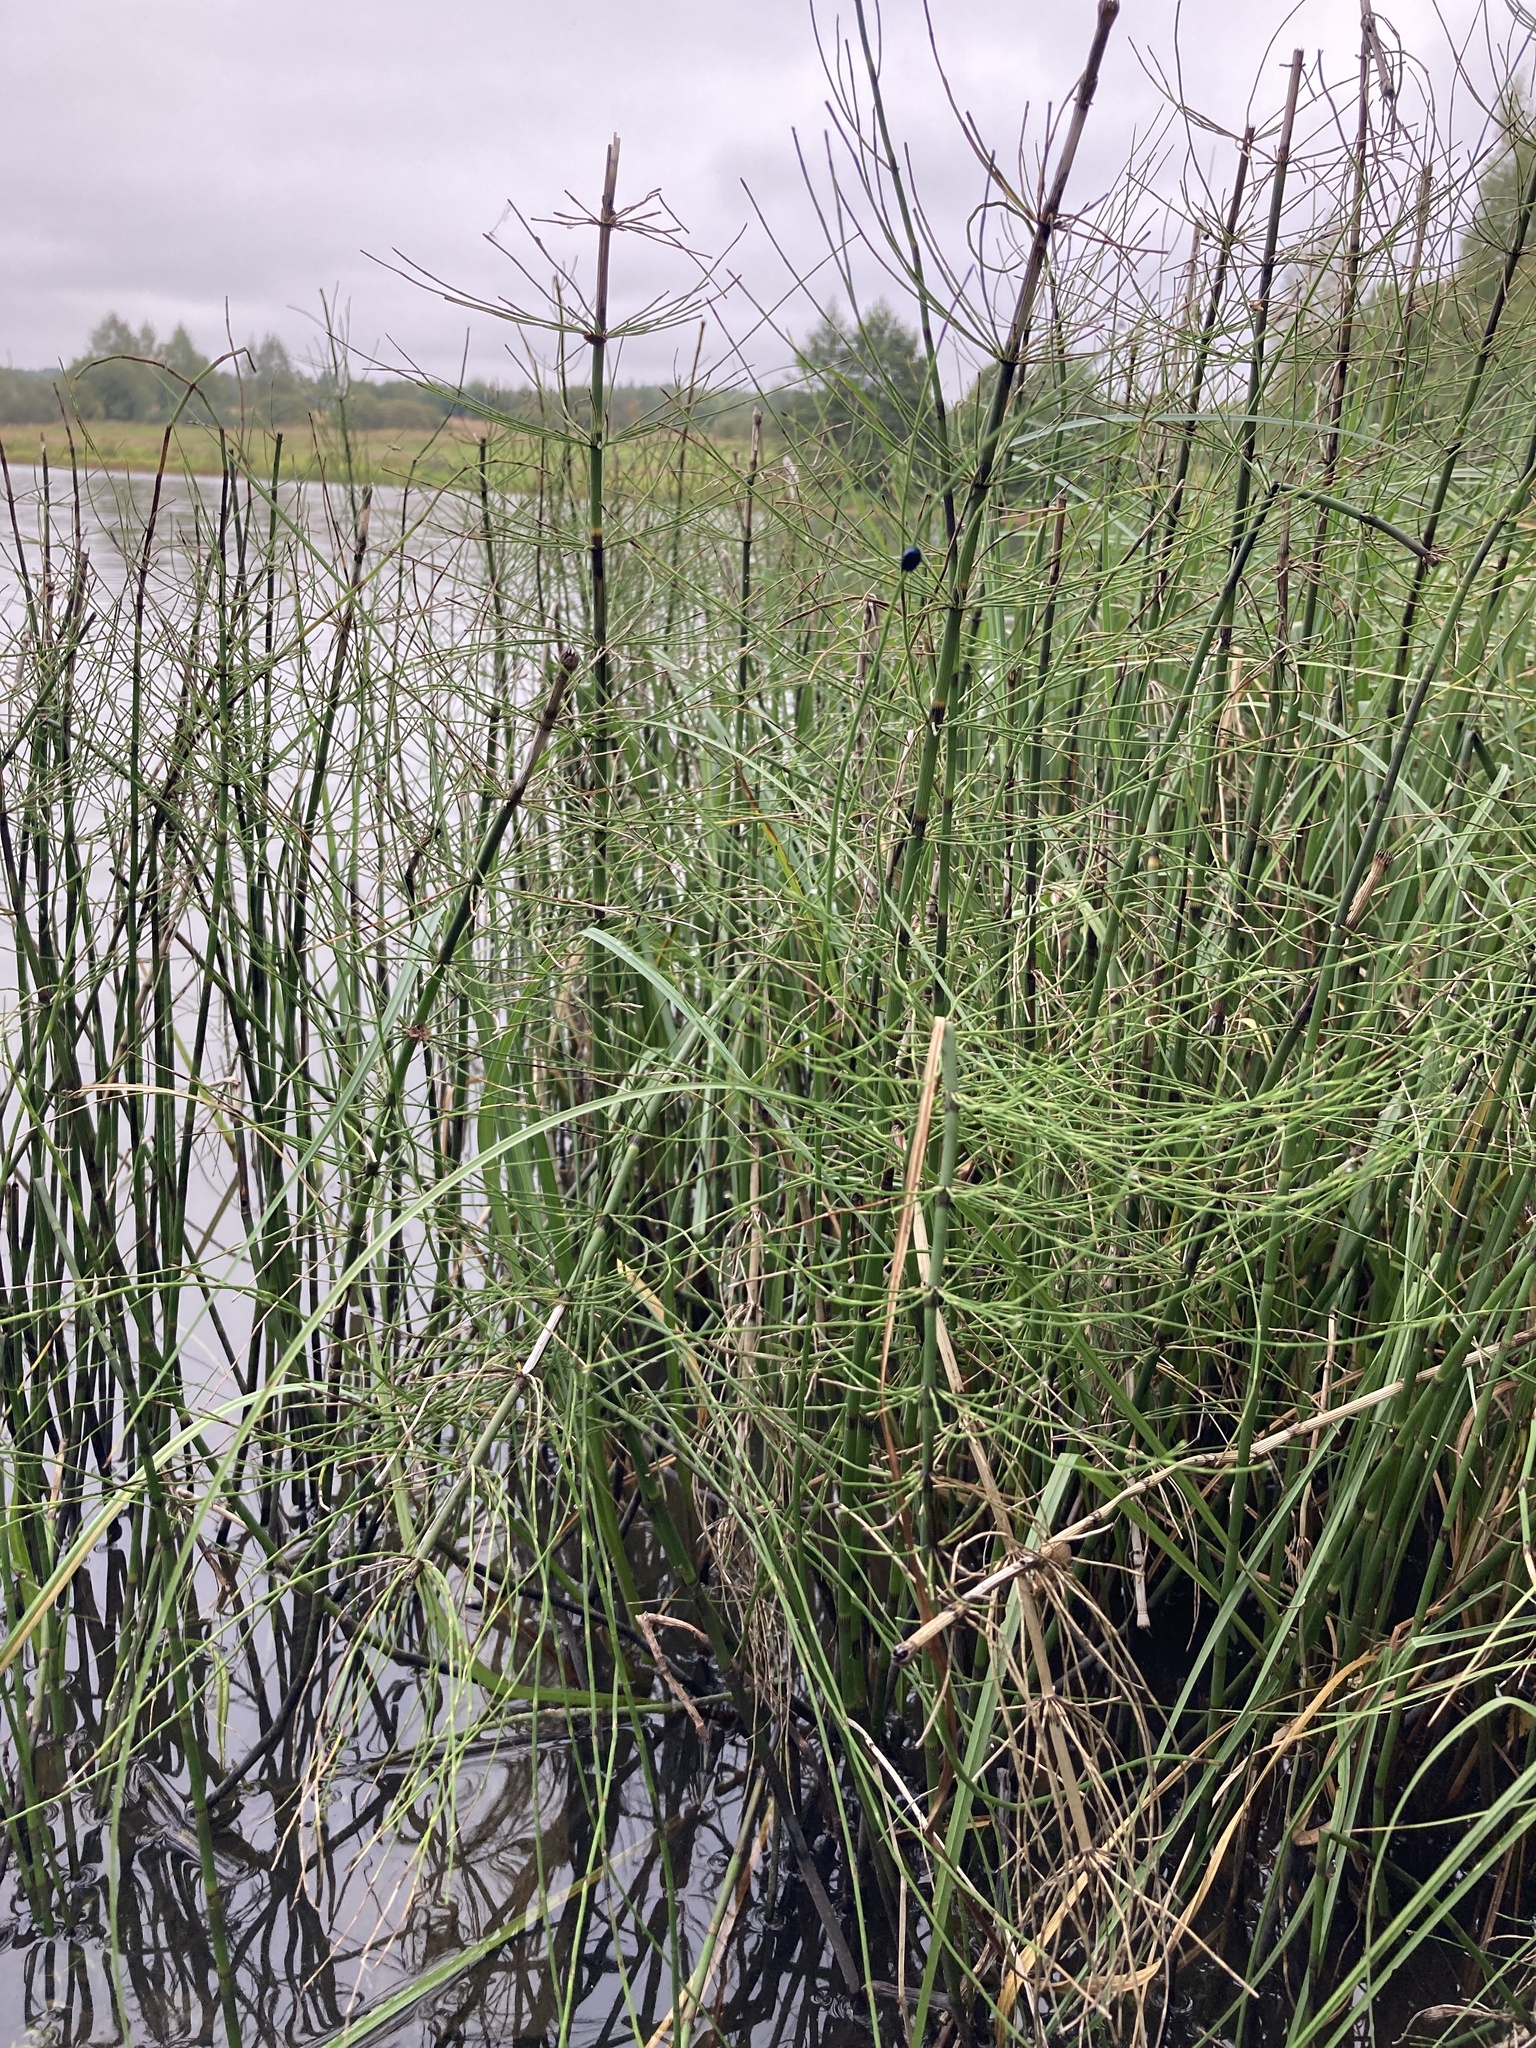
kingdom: Plantae
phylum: Tracheophyta
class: Polypodiopsida
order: Equisetales
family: Equisetaceae
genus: Equisetum
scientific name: Equisetum fluviatile
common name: Water horsetail
